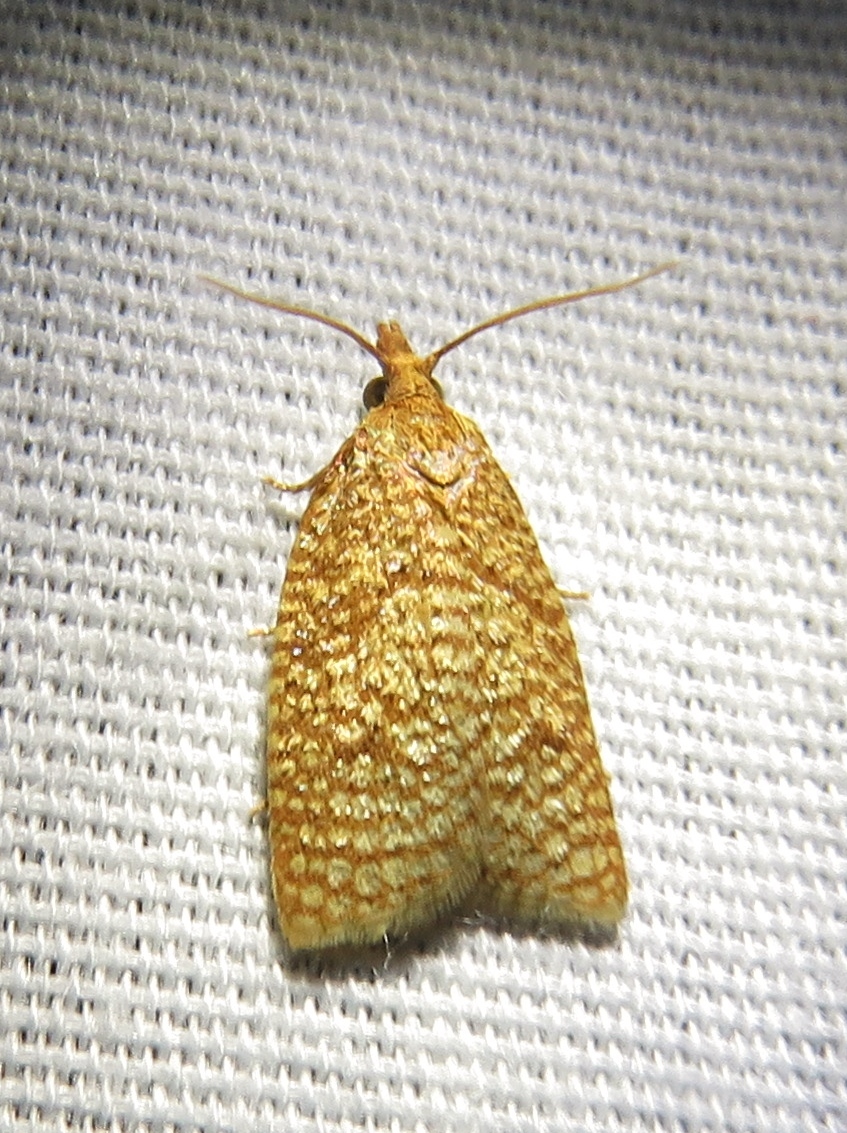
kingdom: Animalia
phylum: Arthropoda
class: Insecta
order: Lepidoptera
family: Tortricidae
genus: Sparganothis
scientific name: Sparganothis caryae
